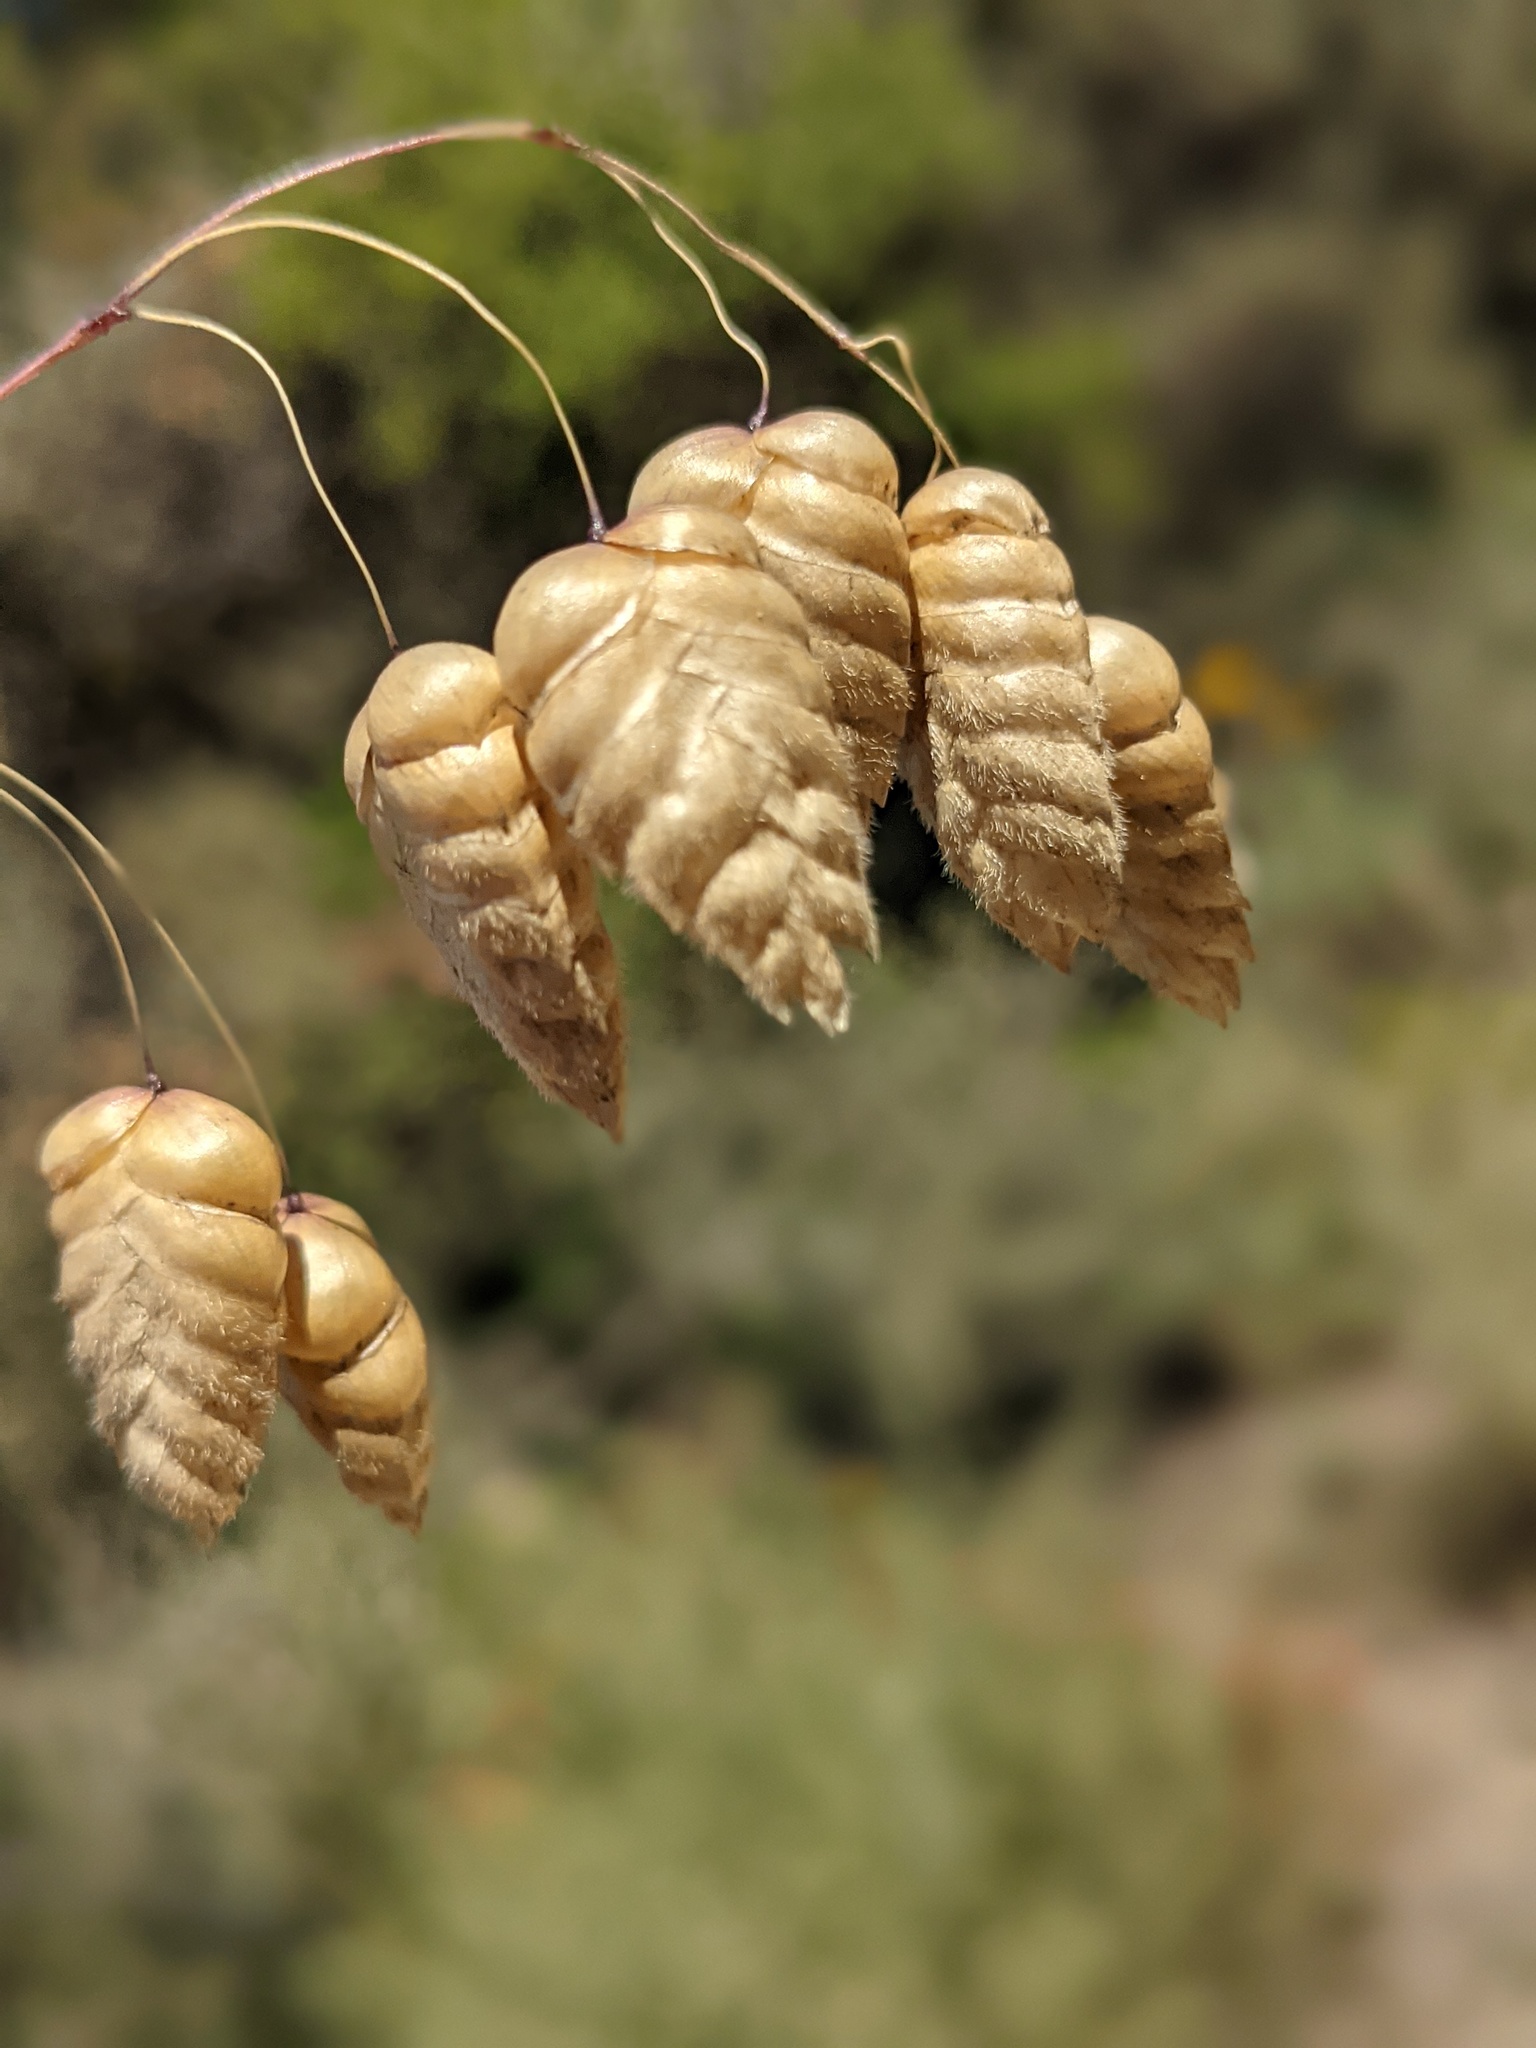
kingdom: Plantae
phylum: Tracheophyta
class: Liliopsida
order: Poales
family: Poaceae
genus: Briza
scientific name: Briza maxima
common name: Big quakinggrass
